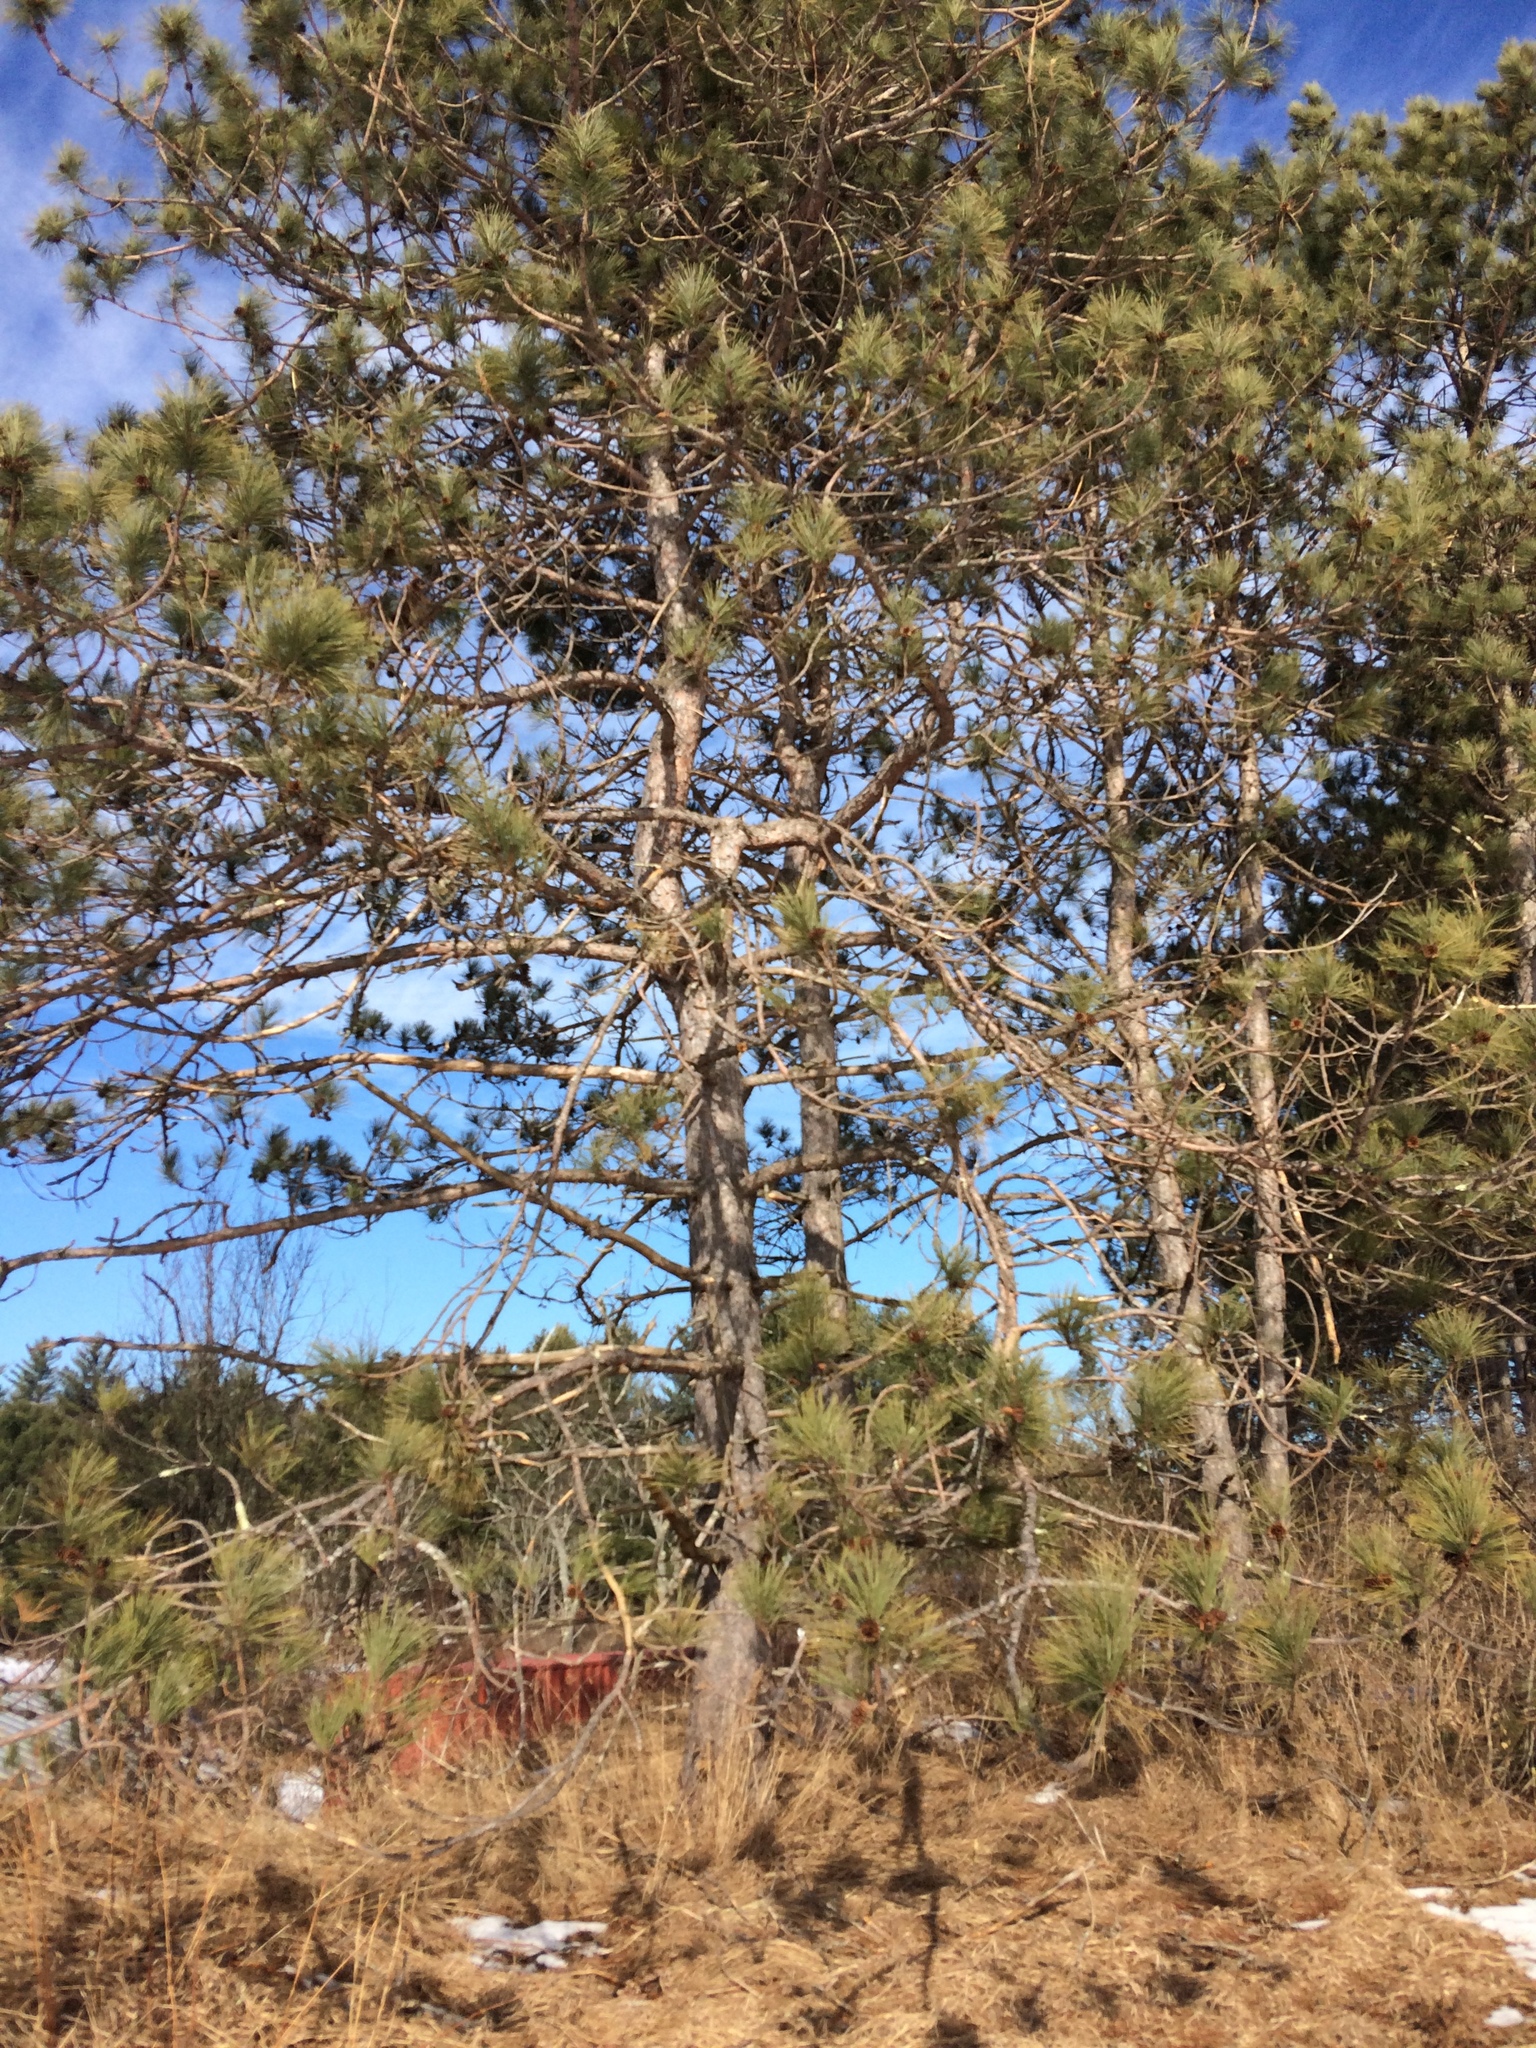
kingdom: Plantae
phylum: Tracheophyta
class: Pinopsida
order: Pinales
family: Pinaceae
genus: Pinus
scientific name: Pinus sylvestris
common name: Scots pine
